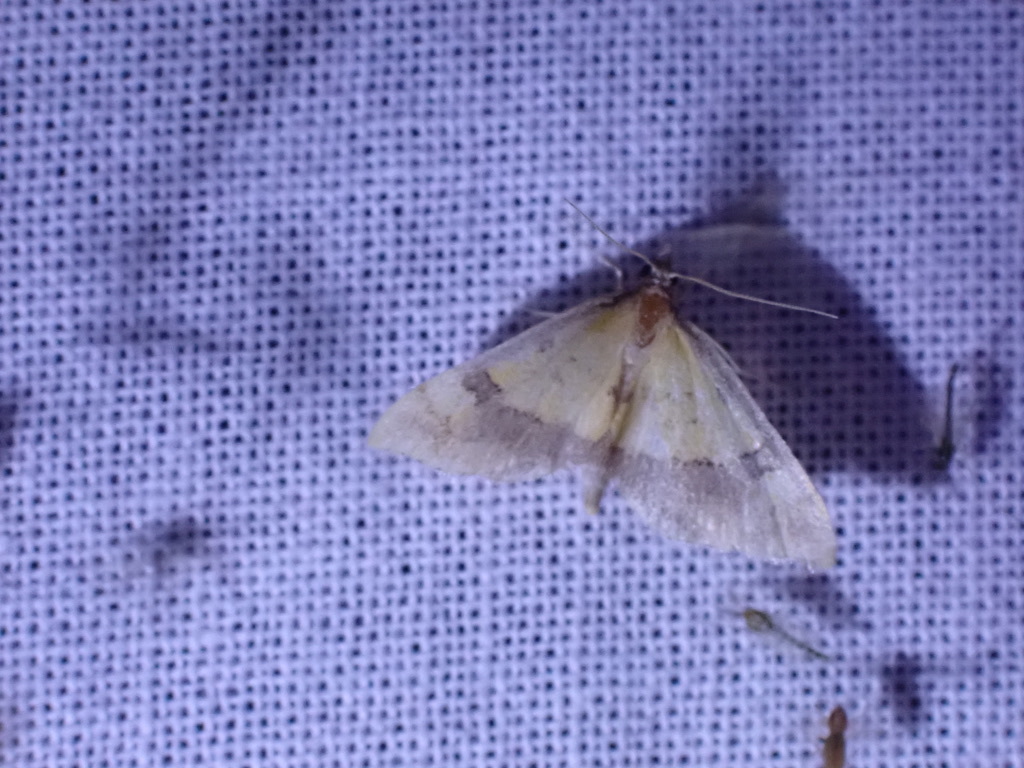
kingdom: Animalia
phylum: Arthropoda
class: Insecta
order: Lepidoptera
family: Crambidae
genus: Choristostigma
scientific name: Choristostigma zephyralis
